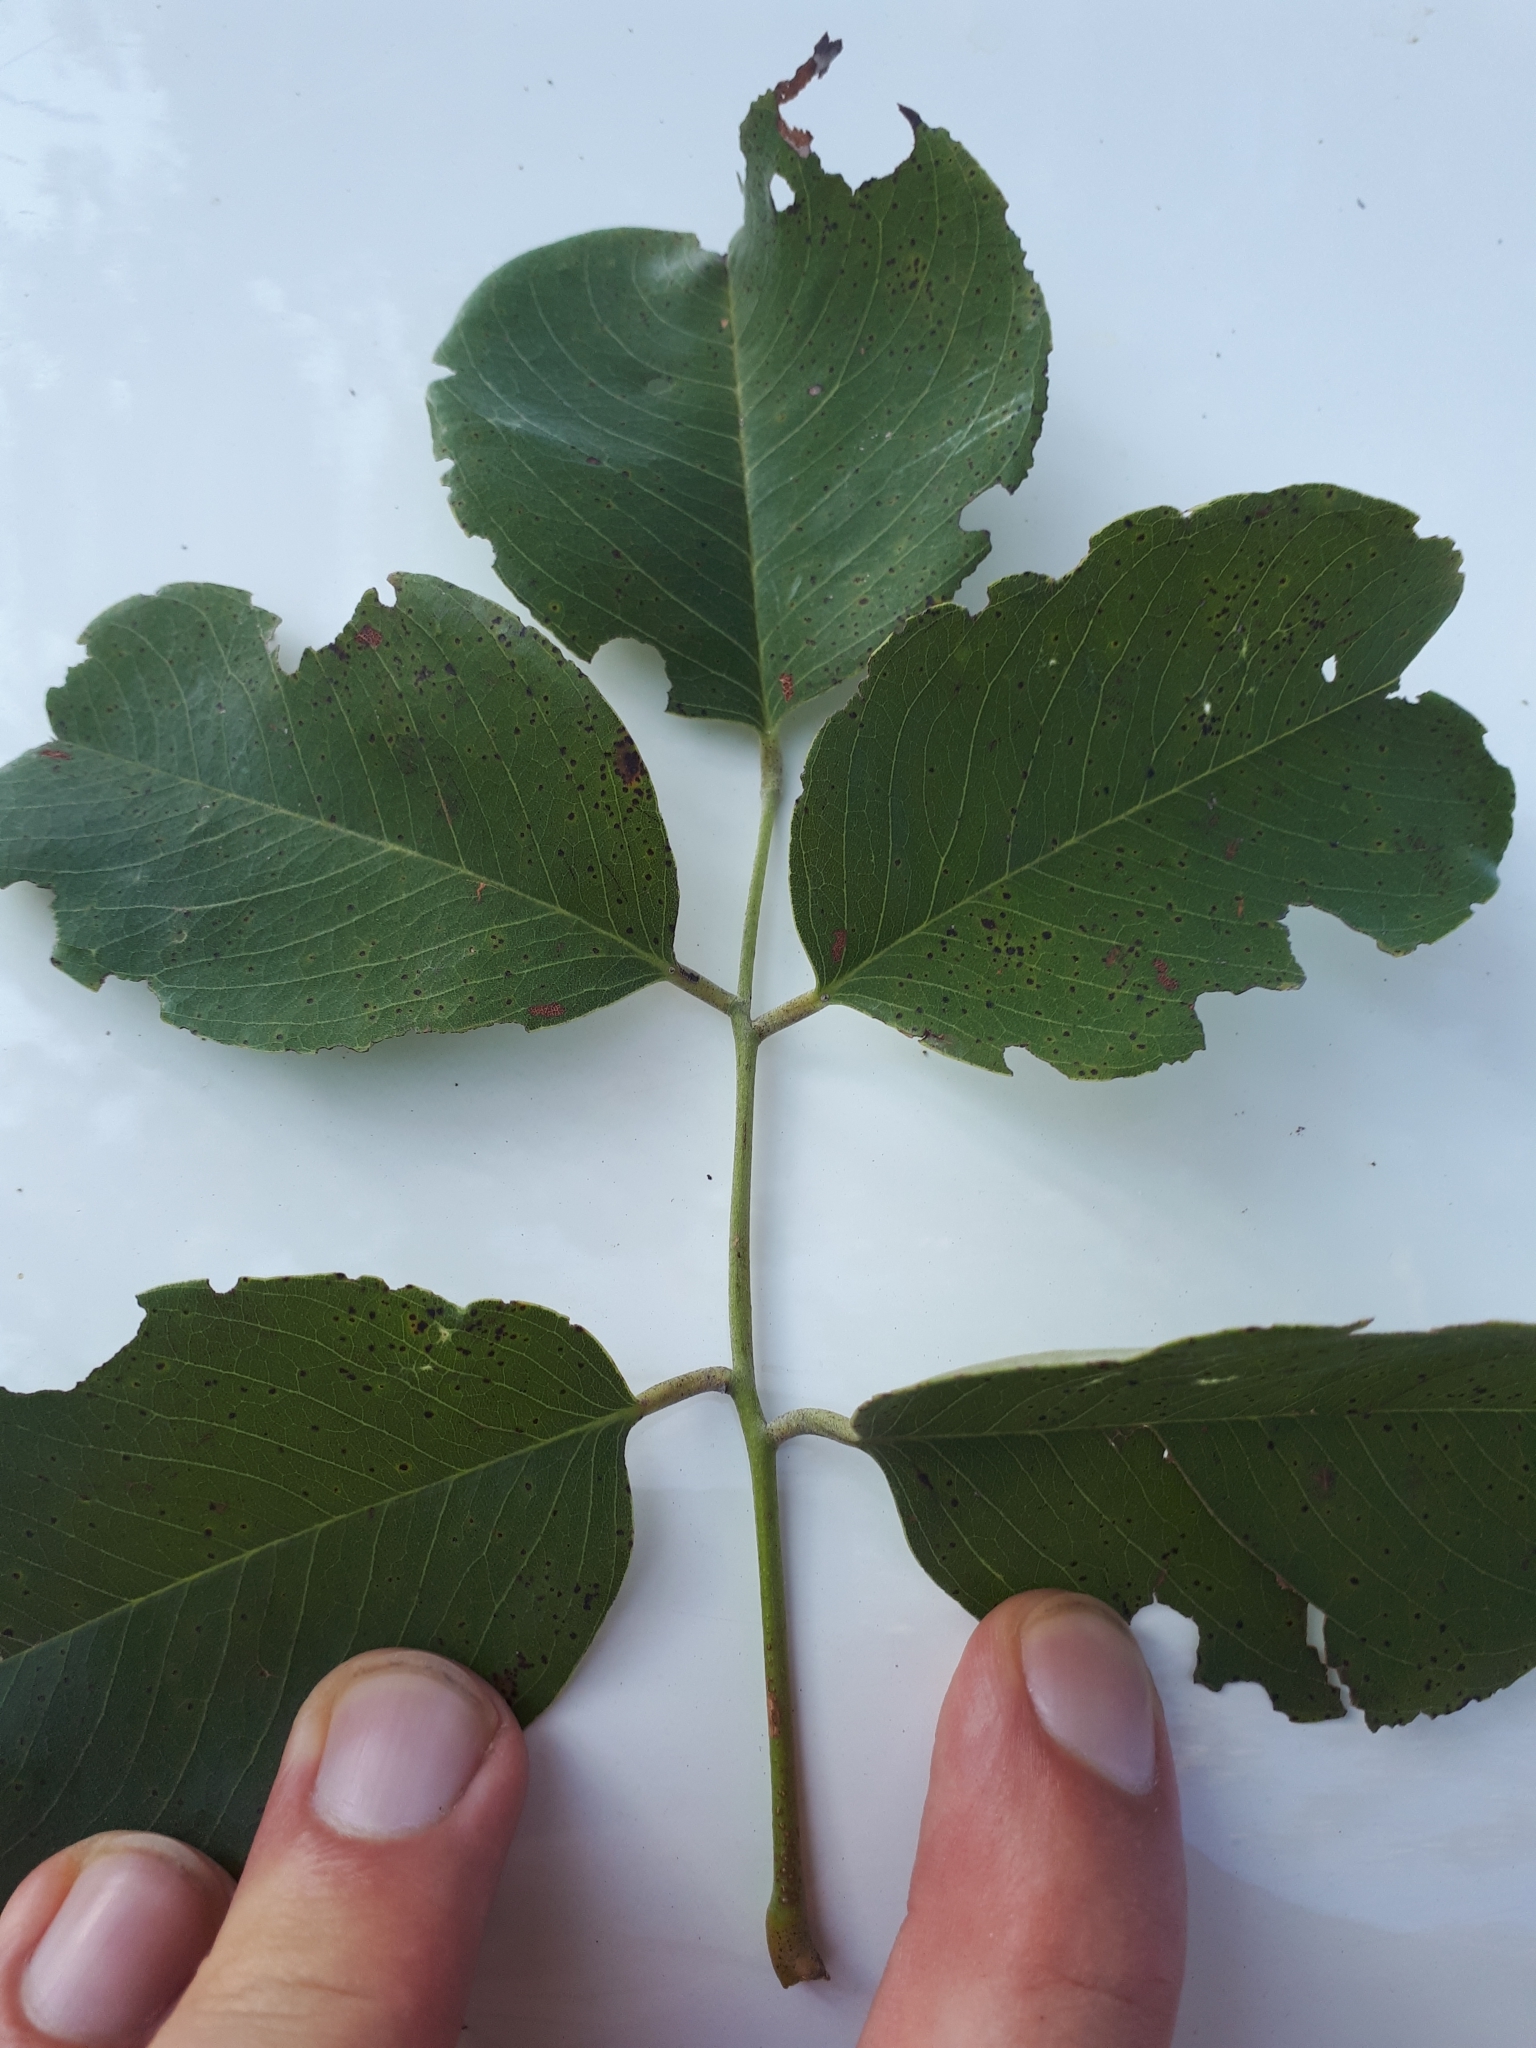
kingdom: Plantae
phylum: Tracheophyta
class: Magnoliopsida
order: Fabales
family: Fabaceae
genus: Pterocarpus
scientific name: Pterocarpus rotundifolius
